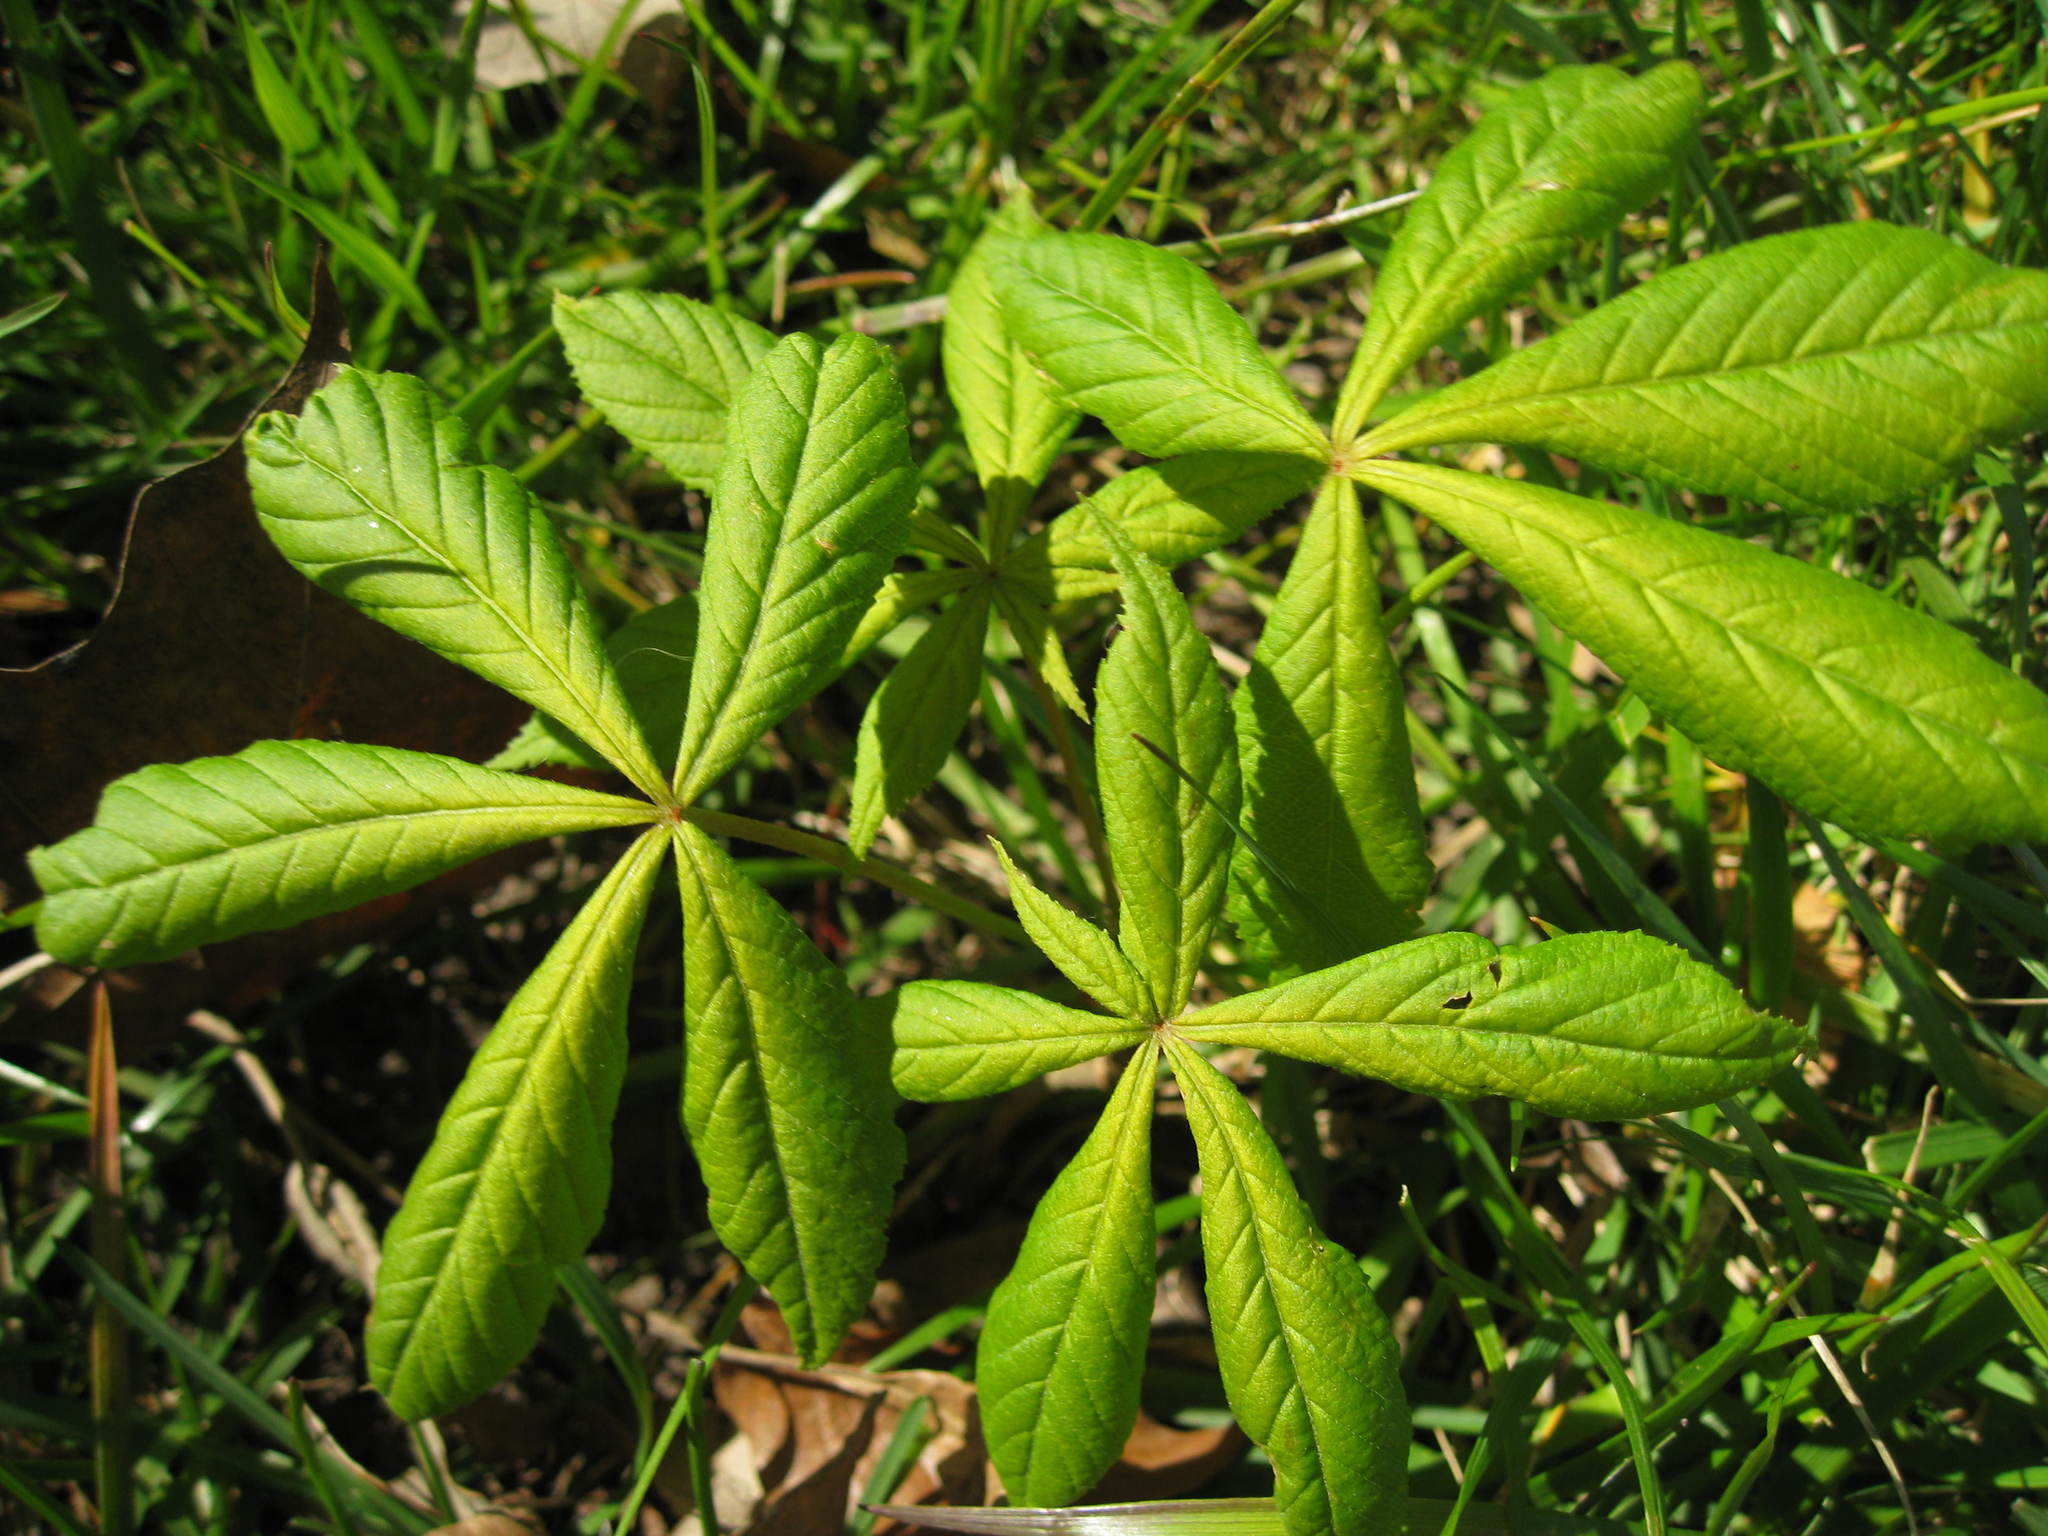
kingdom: Plantae
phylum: Tracheophyta
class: Magnoliopsida
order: Sapindales
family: Sapindaceae
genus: Aesculus
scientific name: Aesculus hippocastanum
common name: Horse-chestnut
